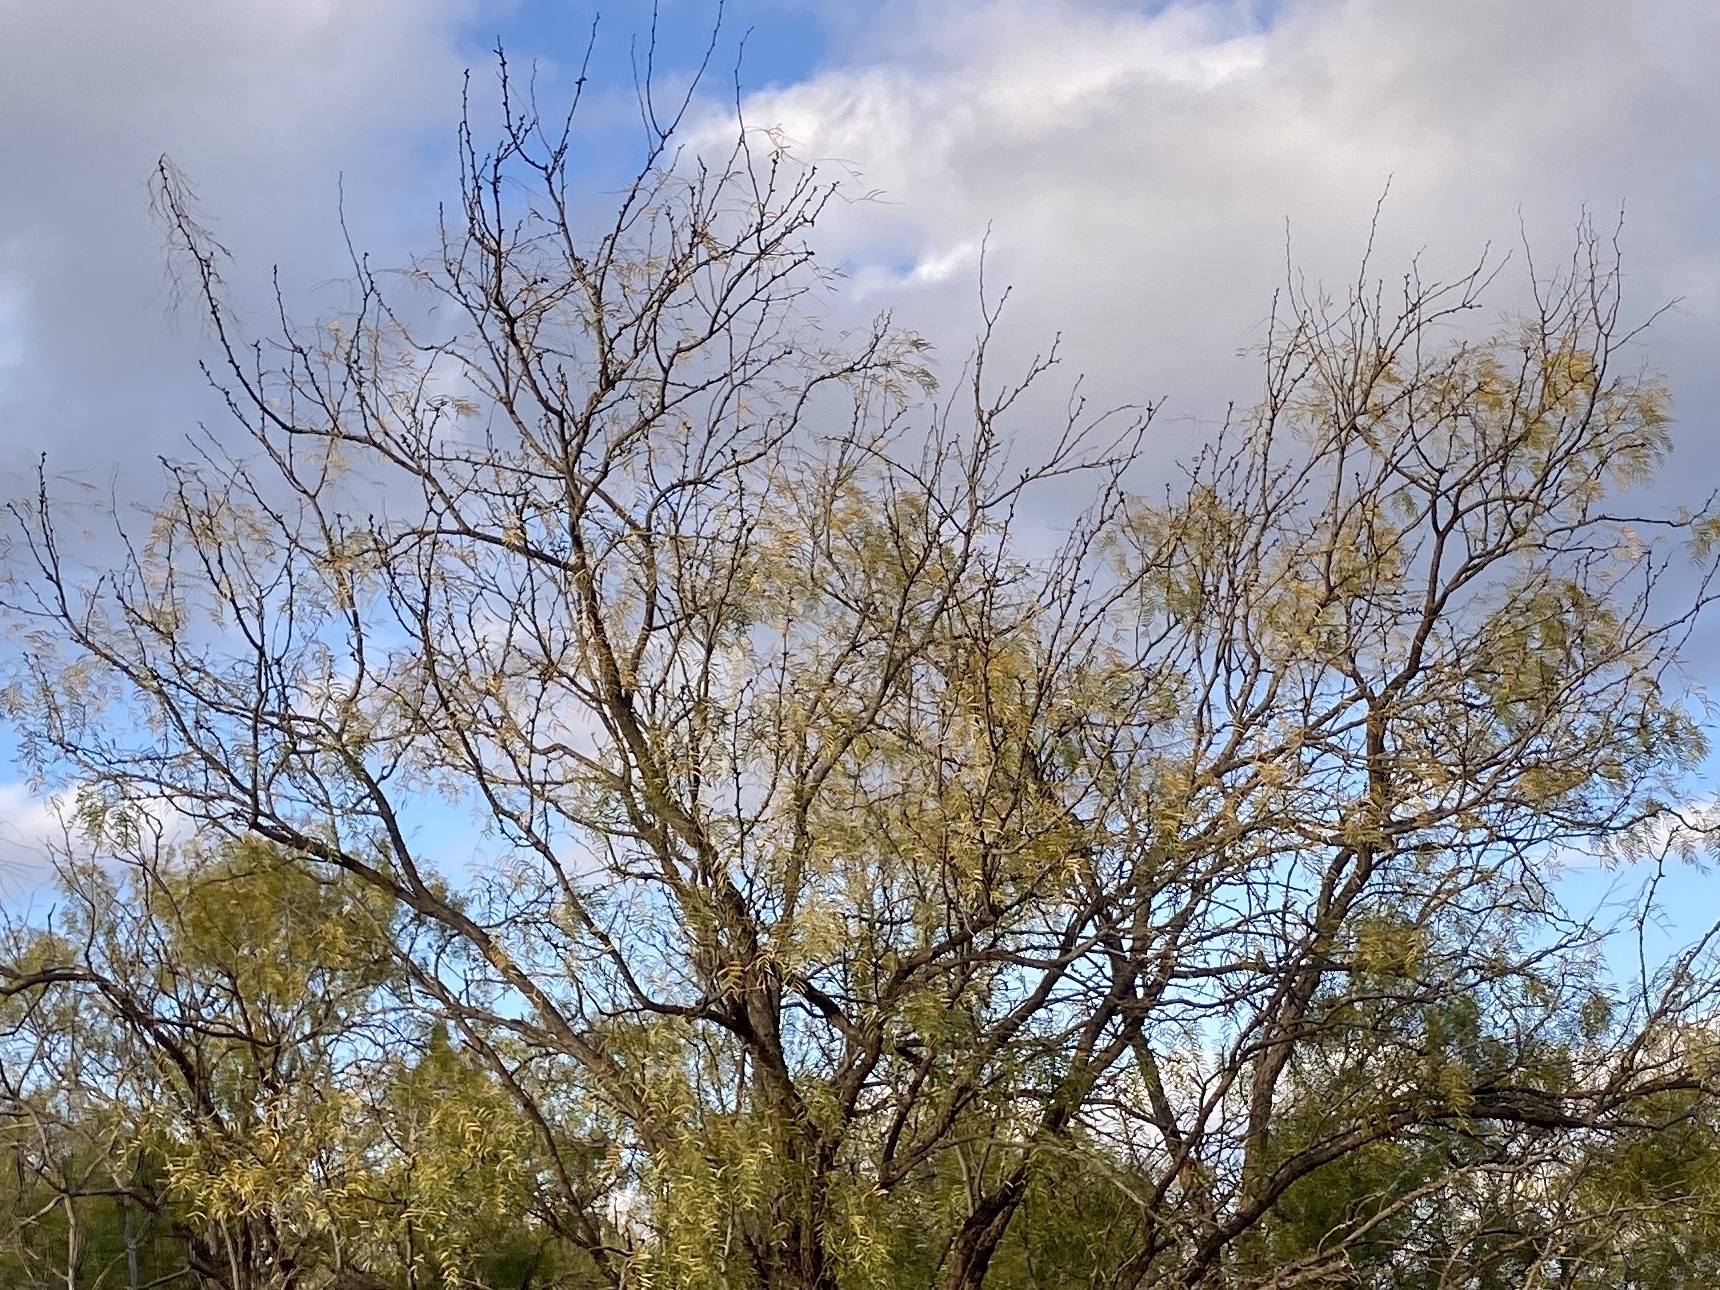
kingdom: Plantae
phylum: Tracheophyta
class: Magnoliopsida
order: Fabales
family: Fabaceae
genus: Prosopis
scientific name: Prosopis glandulosa
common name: Honey mesquite
